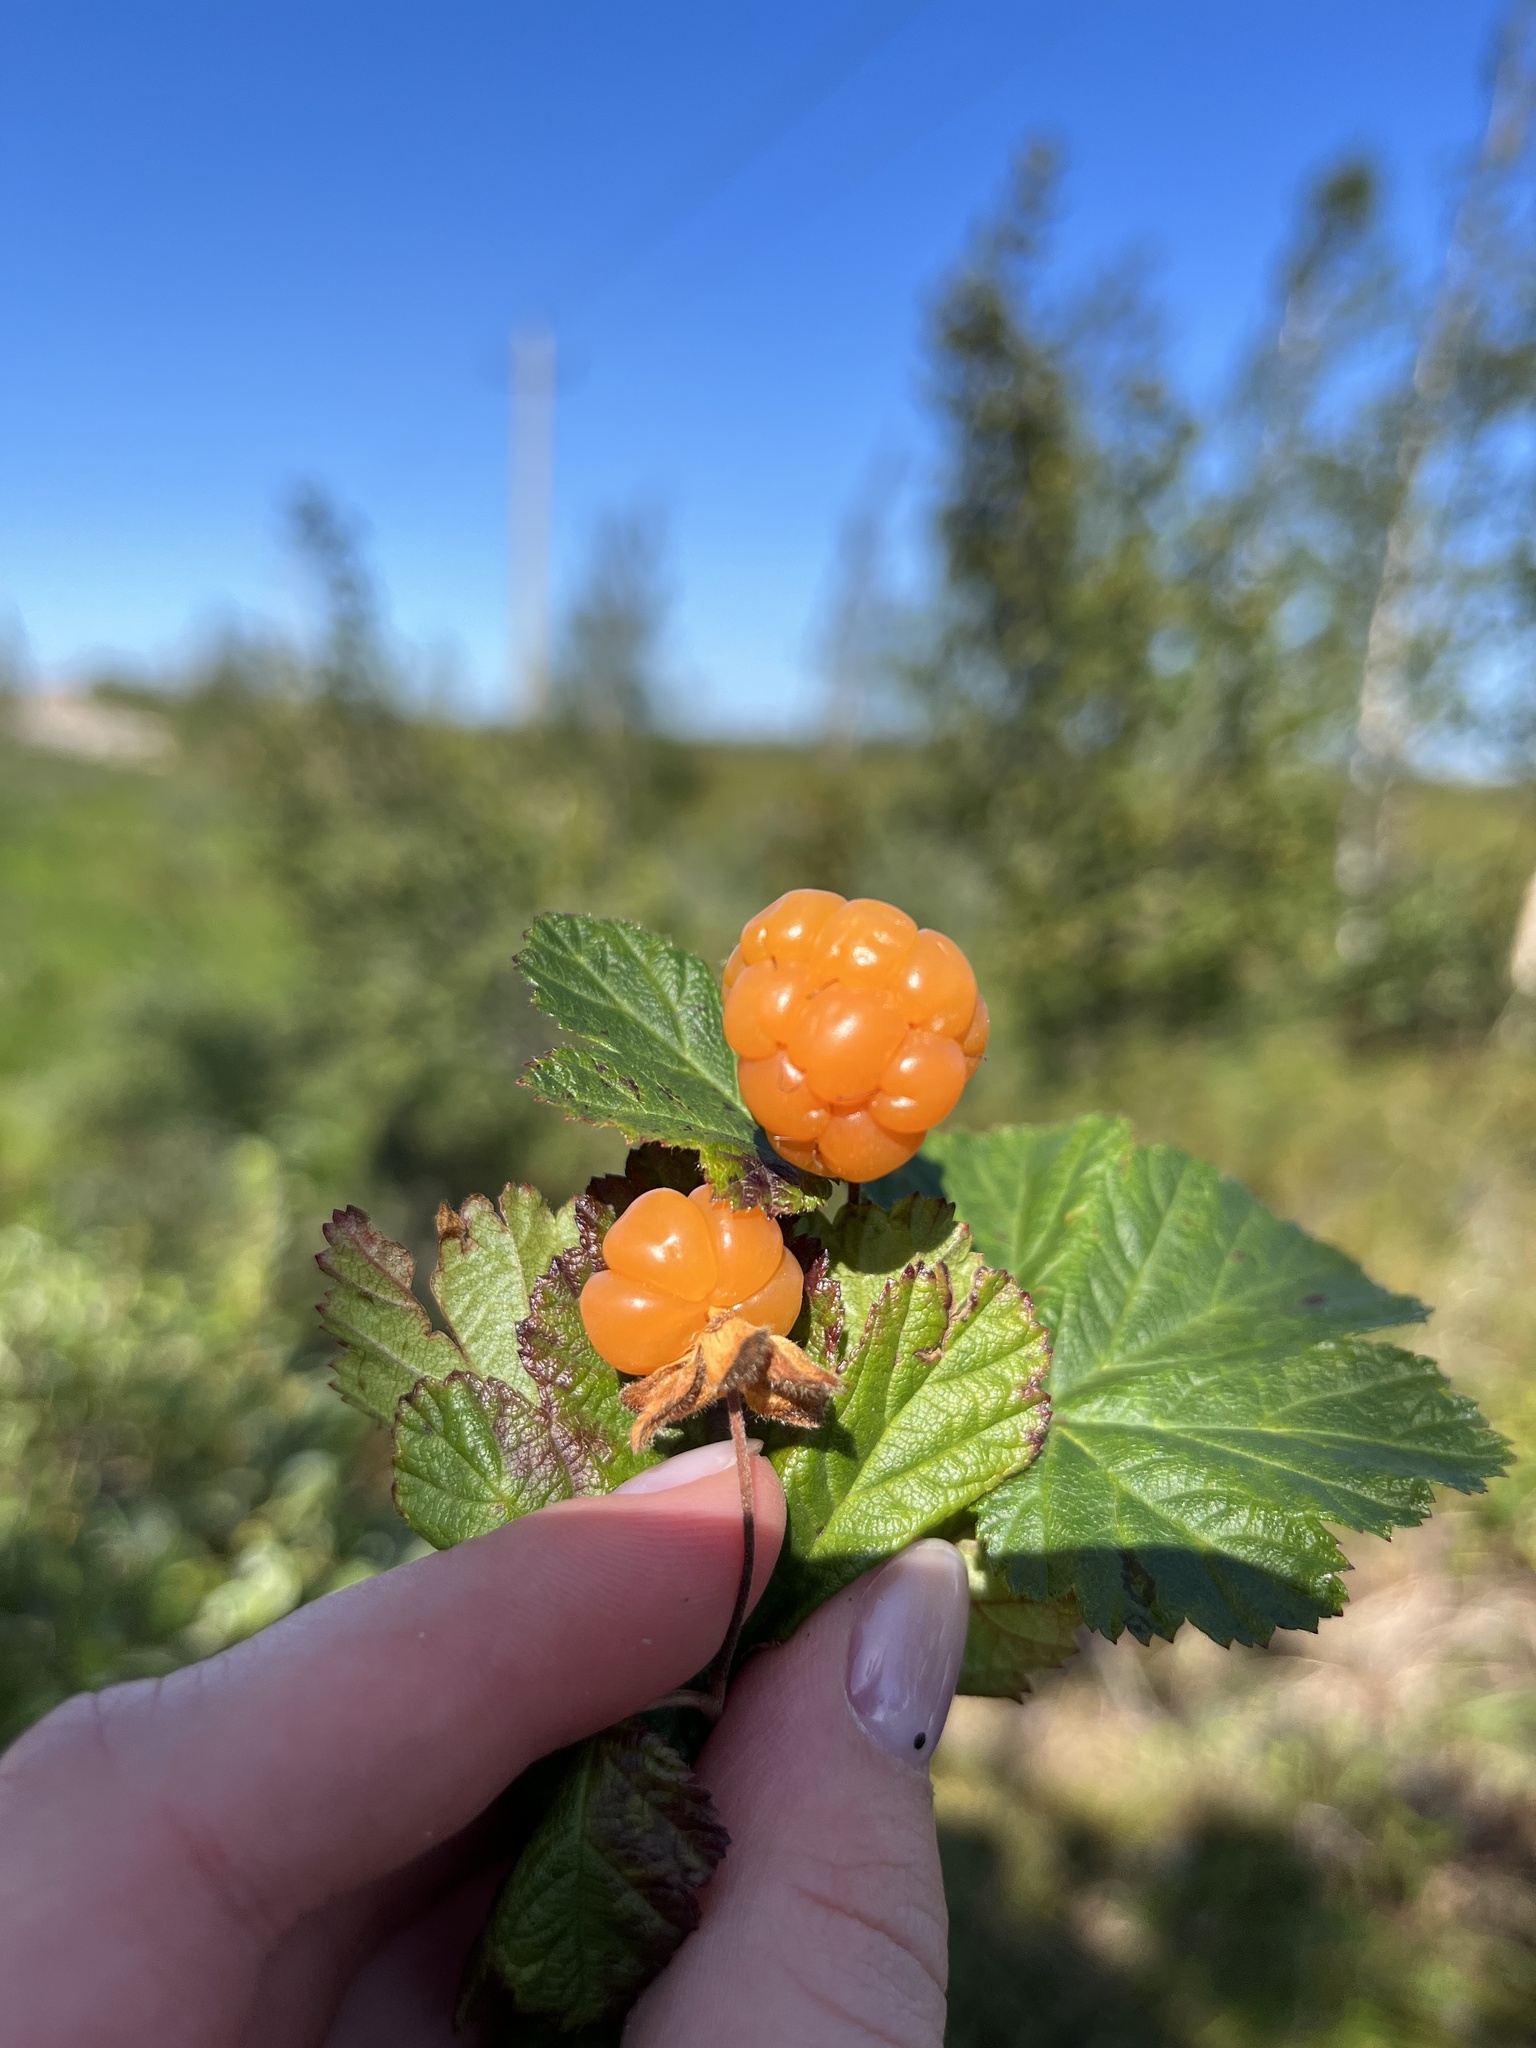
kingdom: Plantae
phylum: Tracheophyta
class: Magnoliopsida
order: Rosales
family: Rosaceae
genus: Rubus
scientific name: Rubus chamaemorus
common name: Cloudberry
